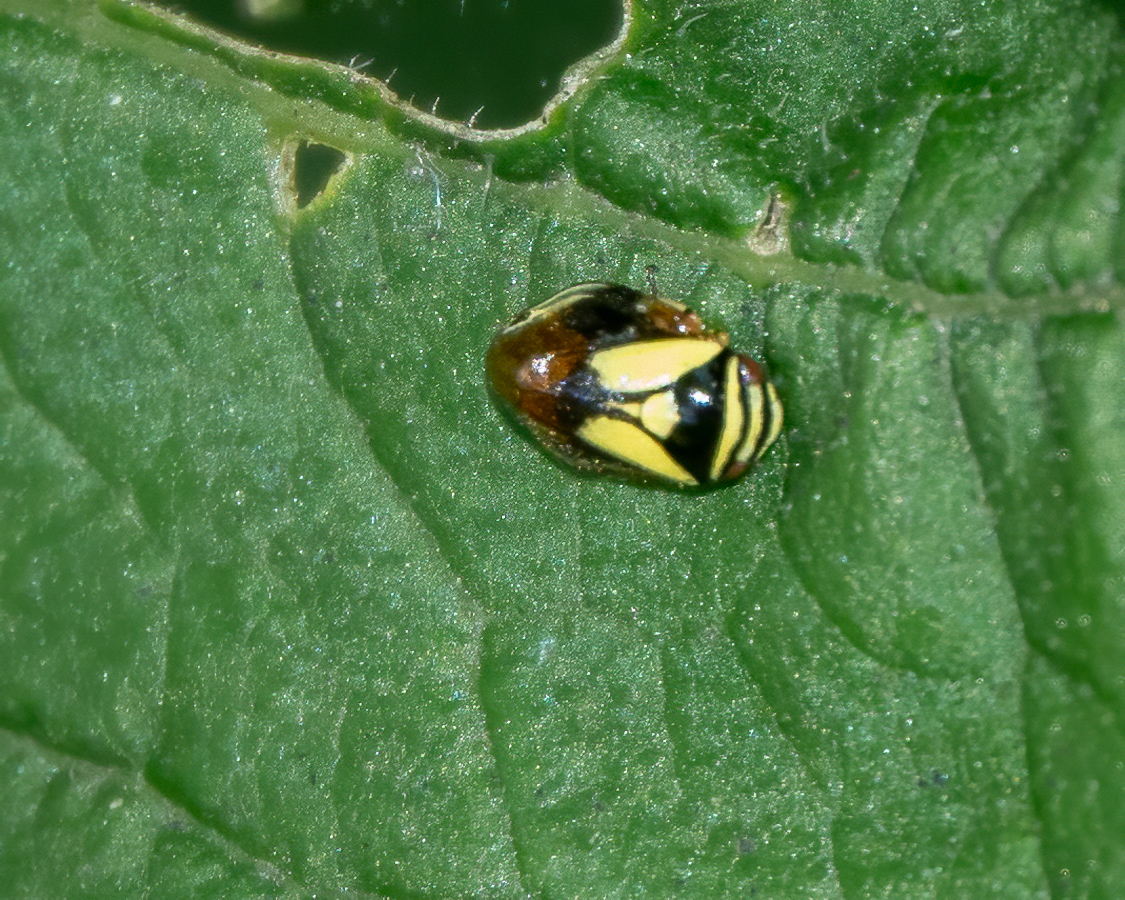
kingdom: Animalia
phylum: Arthropoda
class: Insecta
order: Hemiptera
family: Clastopteridae
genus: Clastoptera
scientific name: Clastoptera proteus
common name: Dogwood spittlebug
